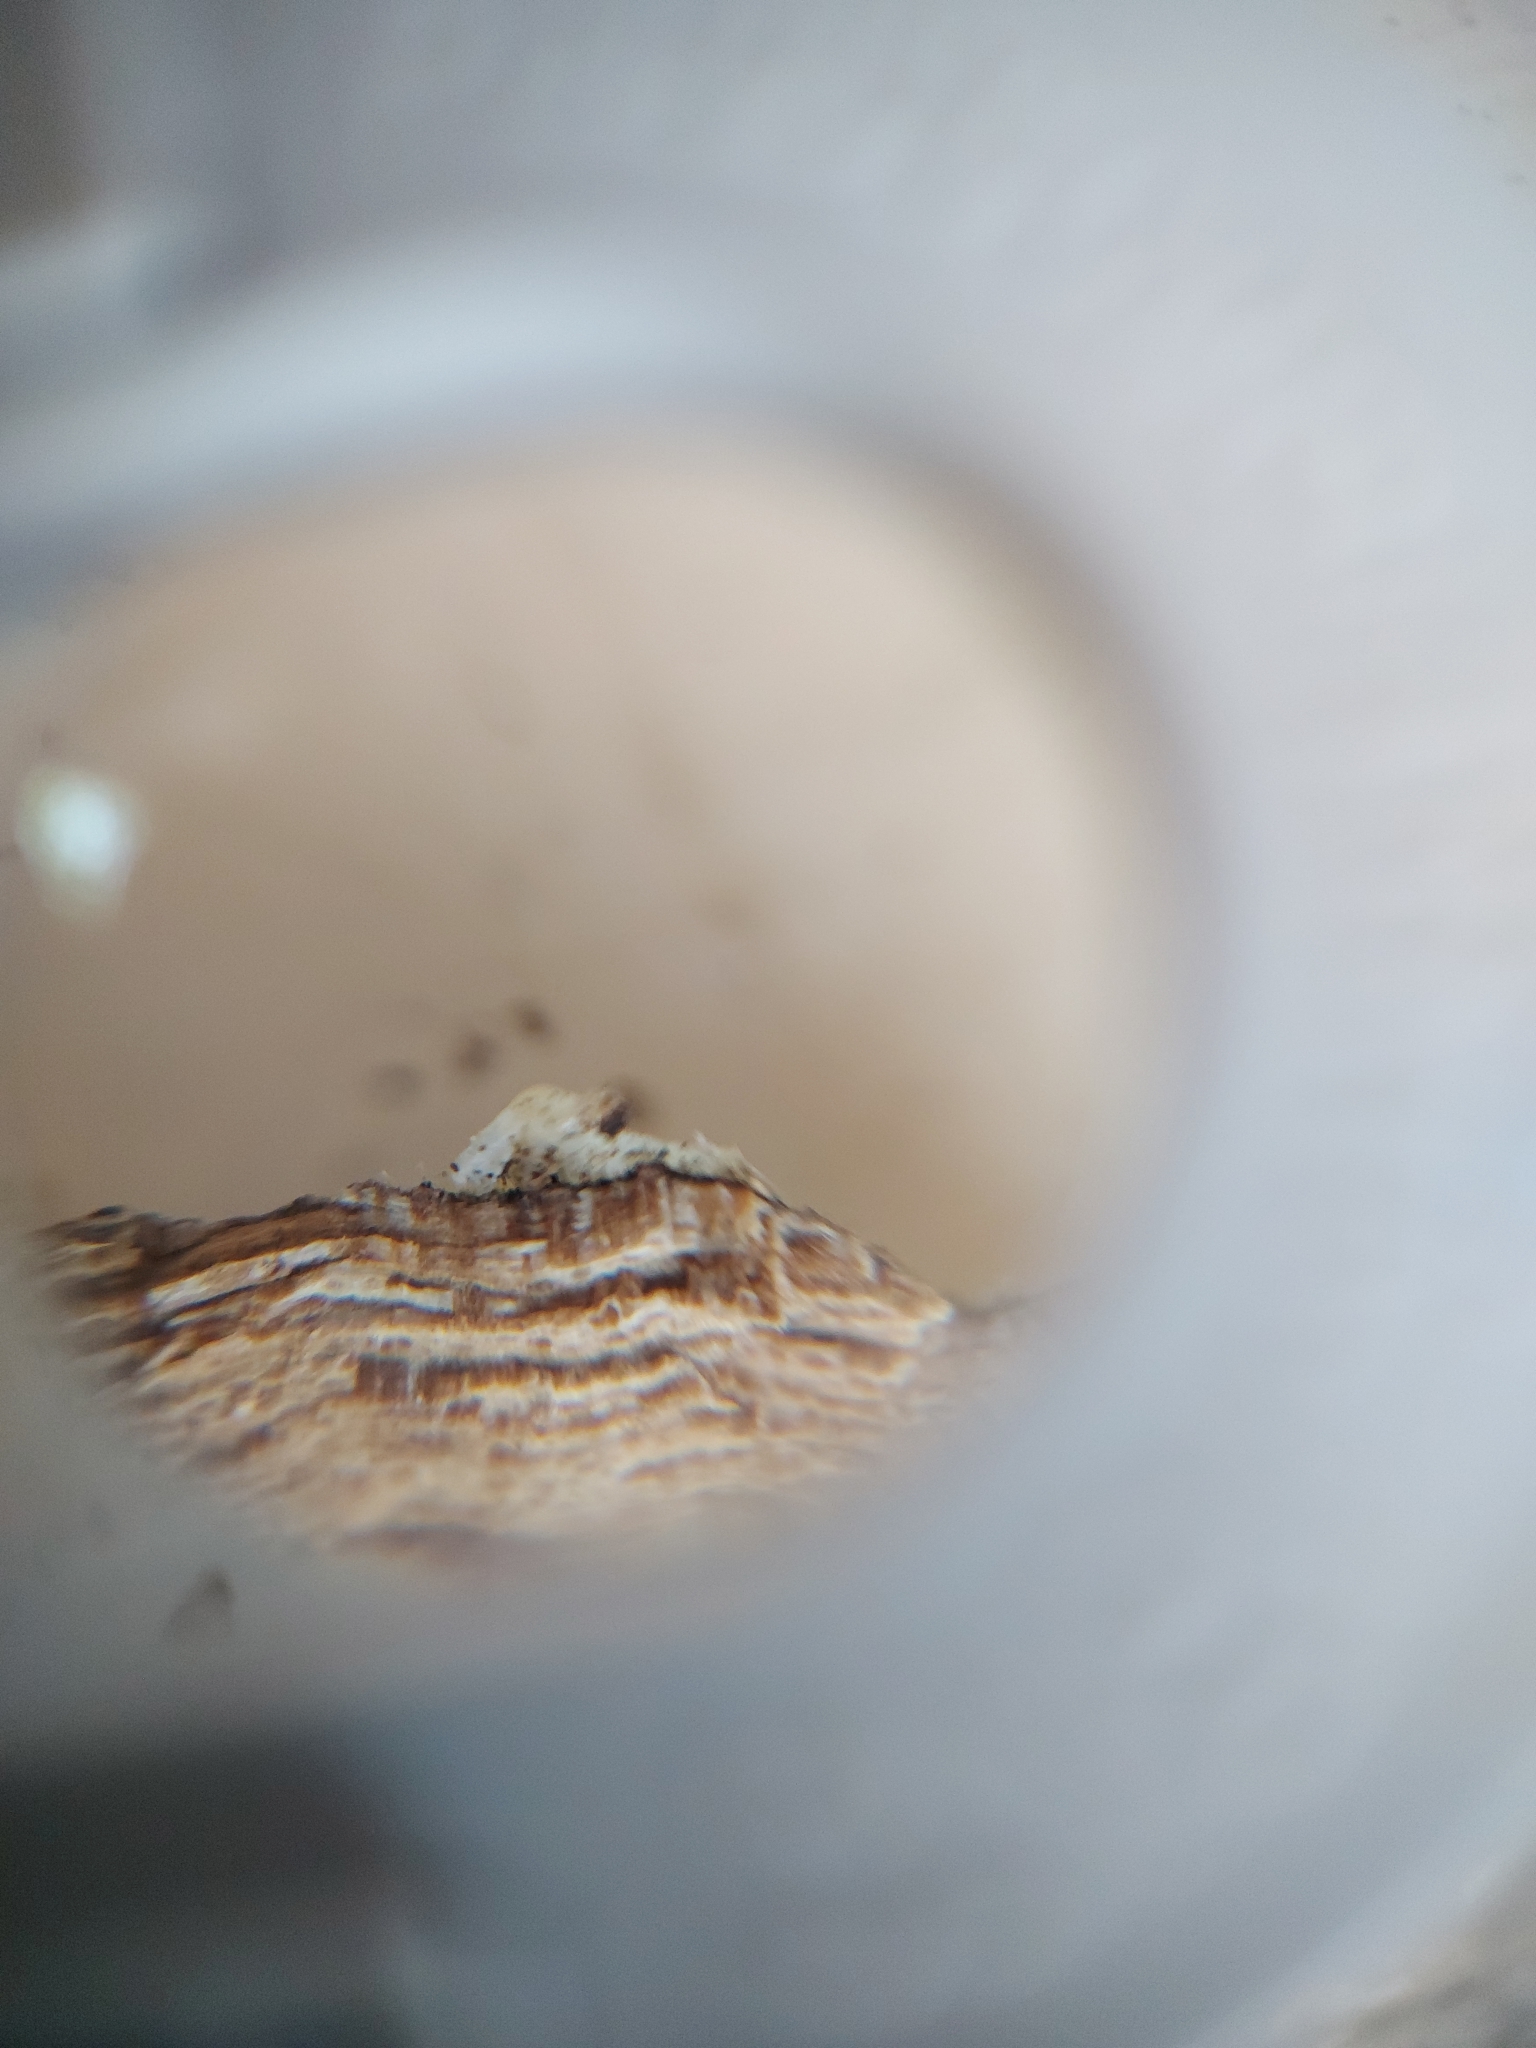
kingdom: Fungi
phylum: Basidiomycota
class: Agaricomycetes
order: Auriculariales
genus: Ductifera
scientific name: Ductifera pululahuana
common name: White jelly fungus
